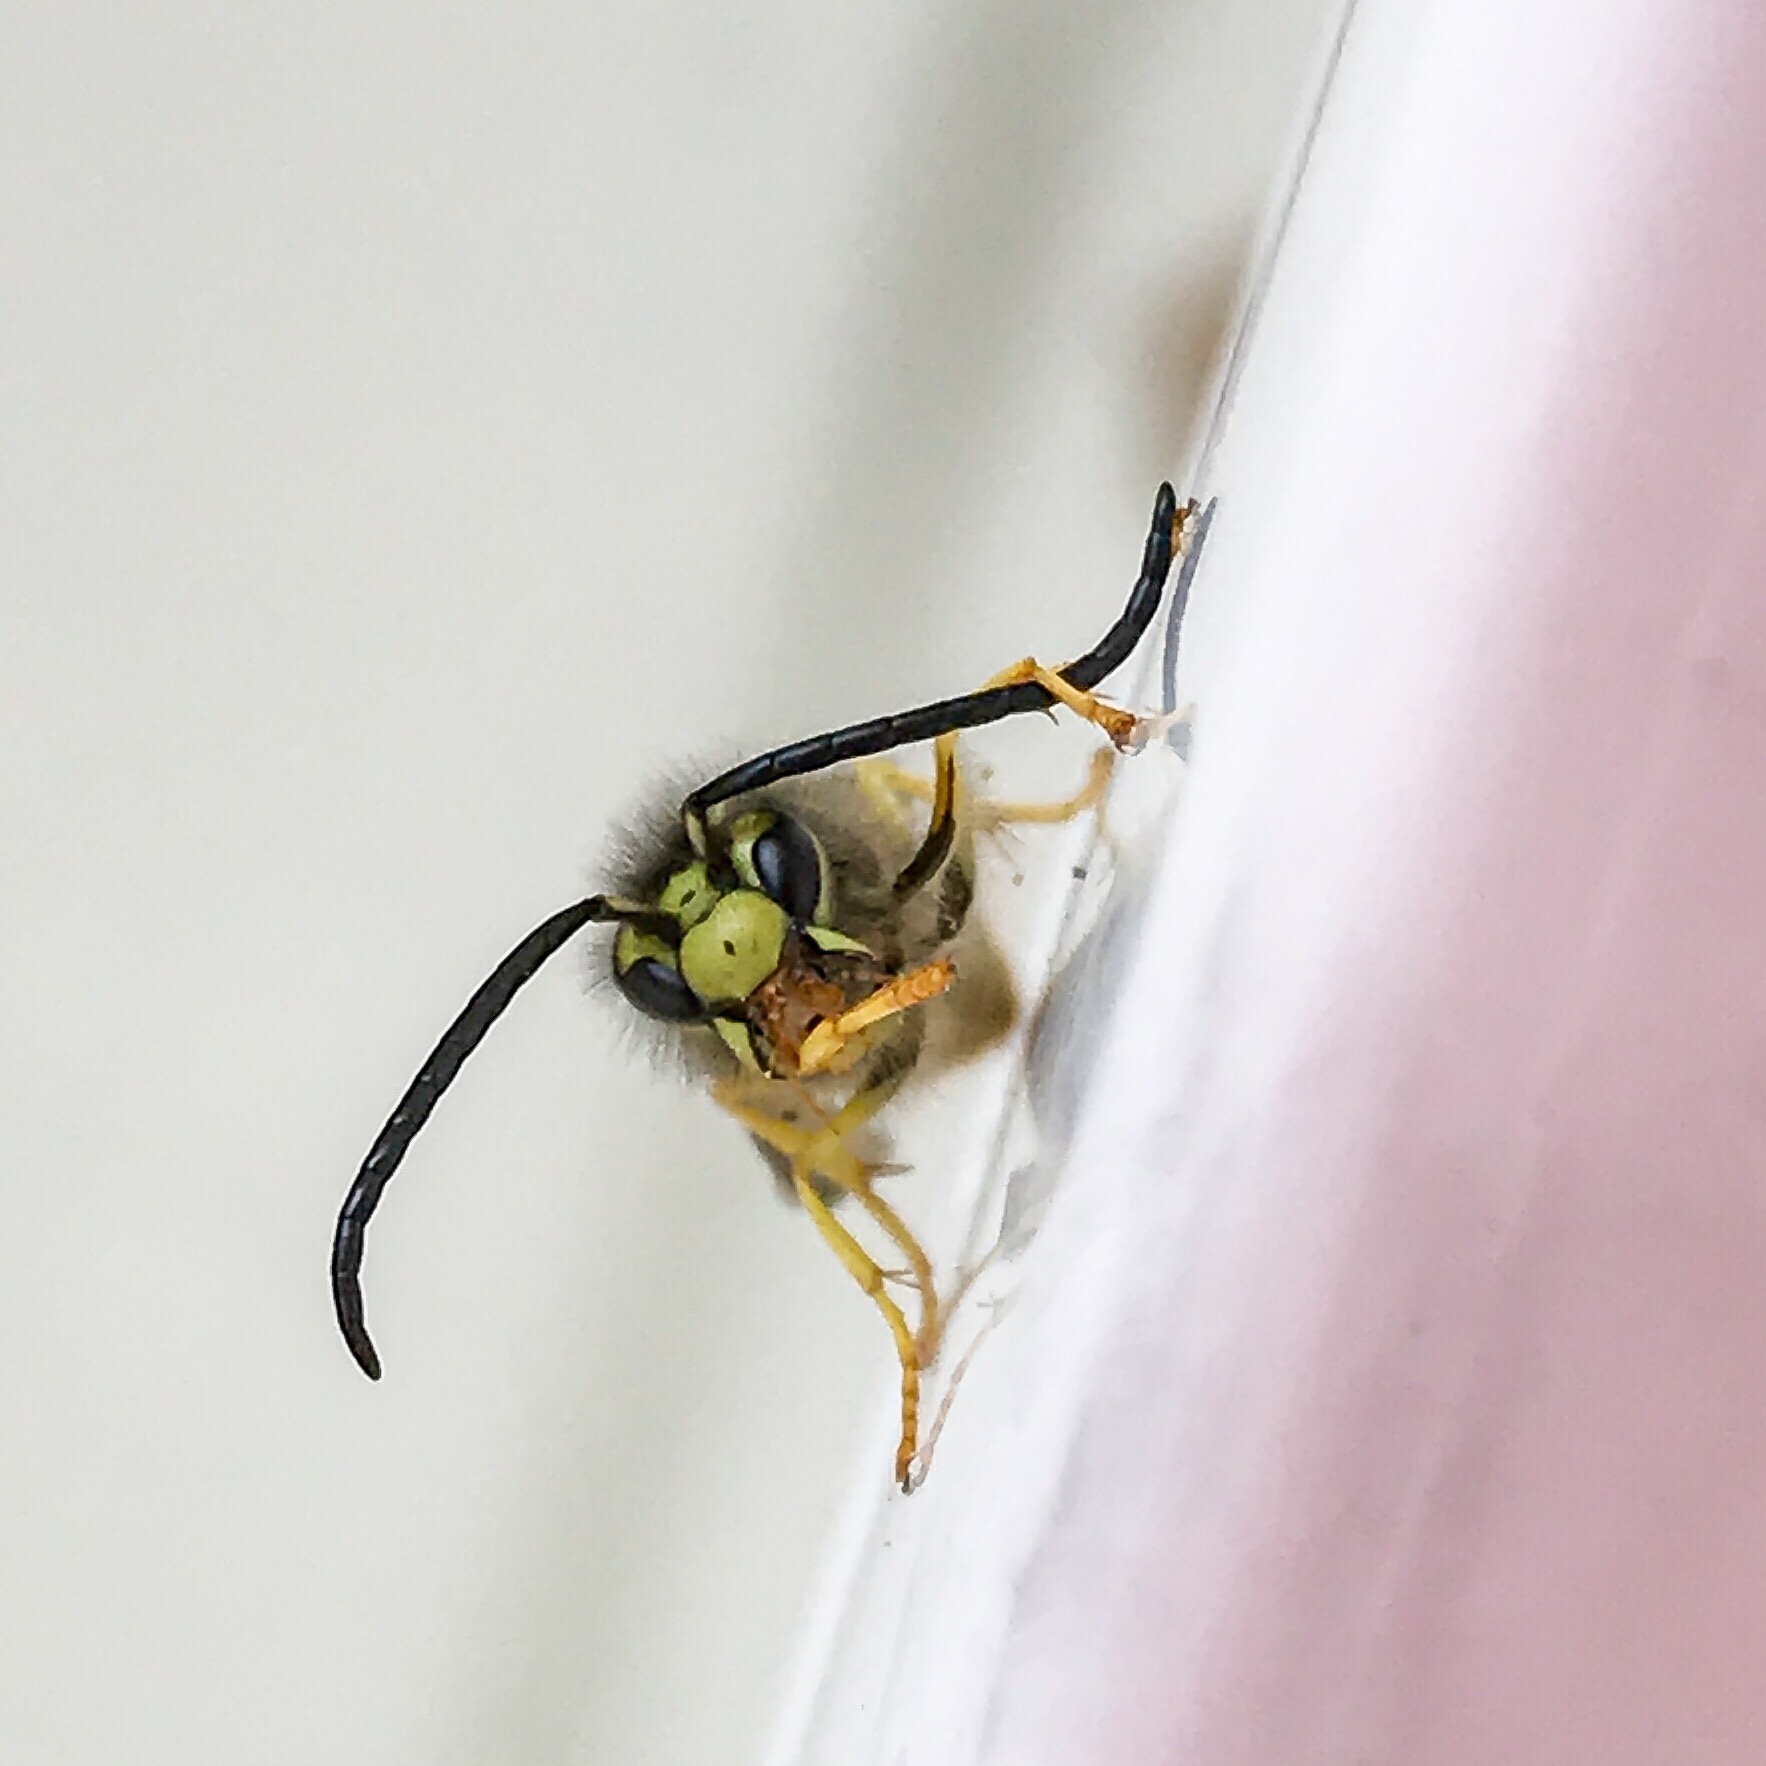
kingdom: Animalia
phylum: Arthropoda
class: Insecta
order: Hymenoptera
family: Vespidae
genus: Vespula
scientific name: Vespula maculifrons
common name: Eastern yellowjacket
